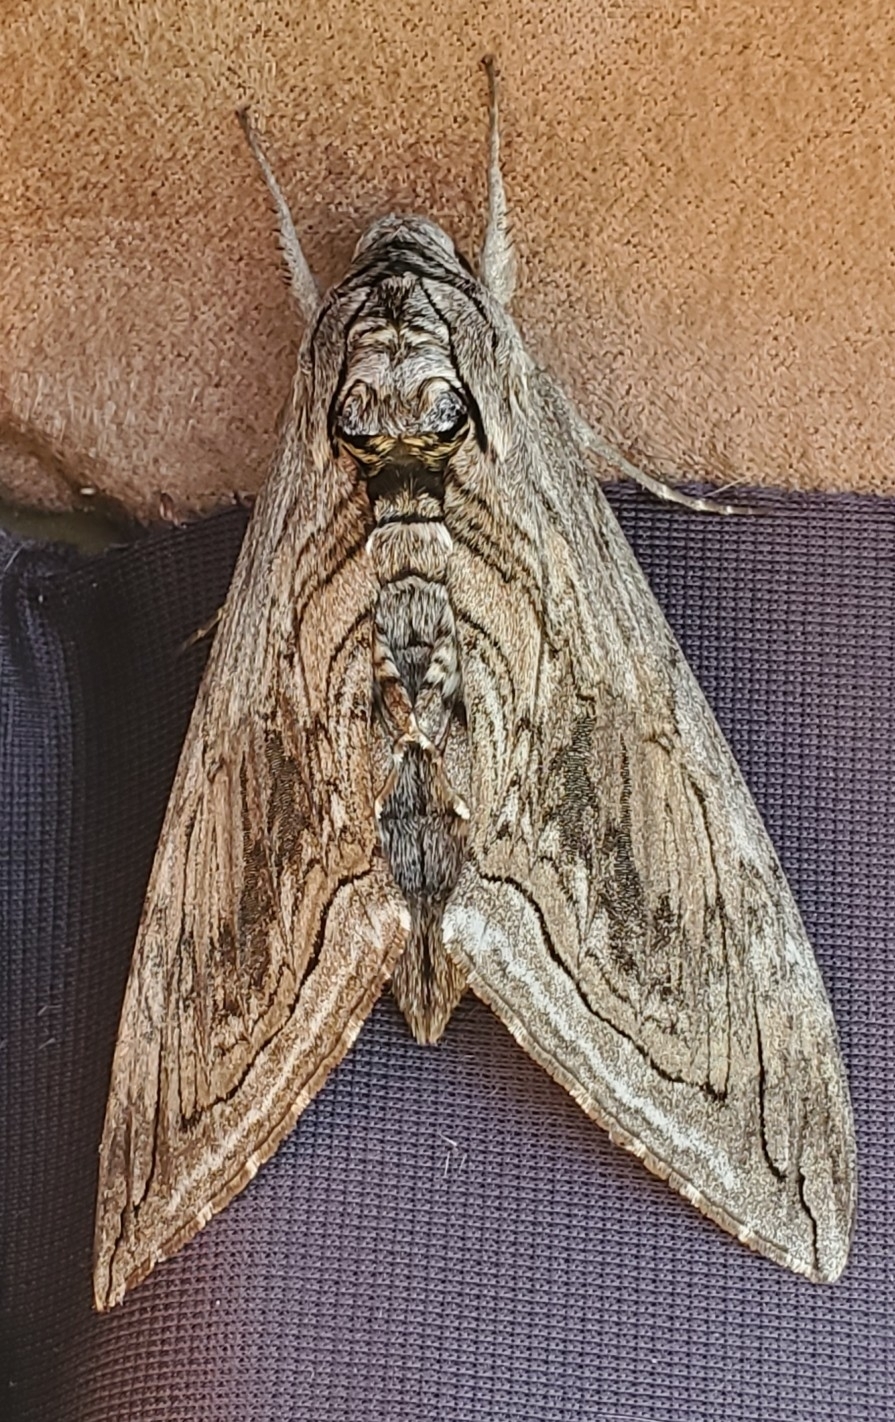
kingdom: Animalia
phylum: Arthropoda
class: Insecta
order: Lepidoptera
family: Sphingidae
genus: Manduca
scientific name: Manduca quinquemaculatus
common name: Five-spotted hawk-moth
